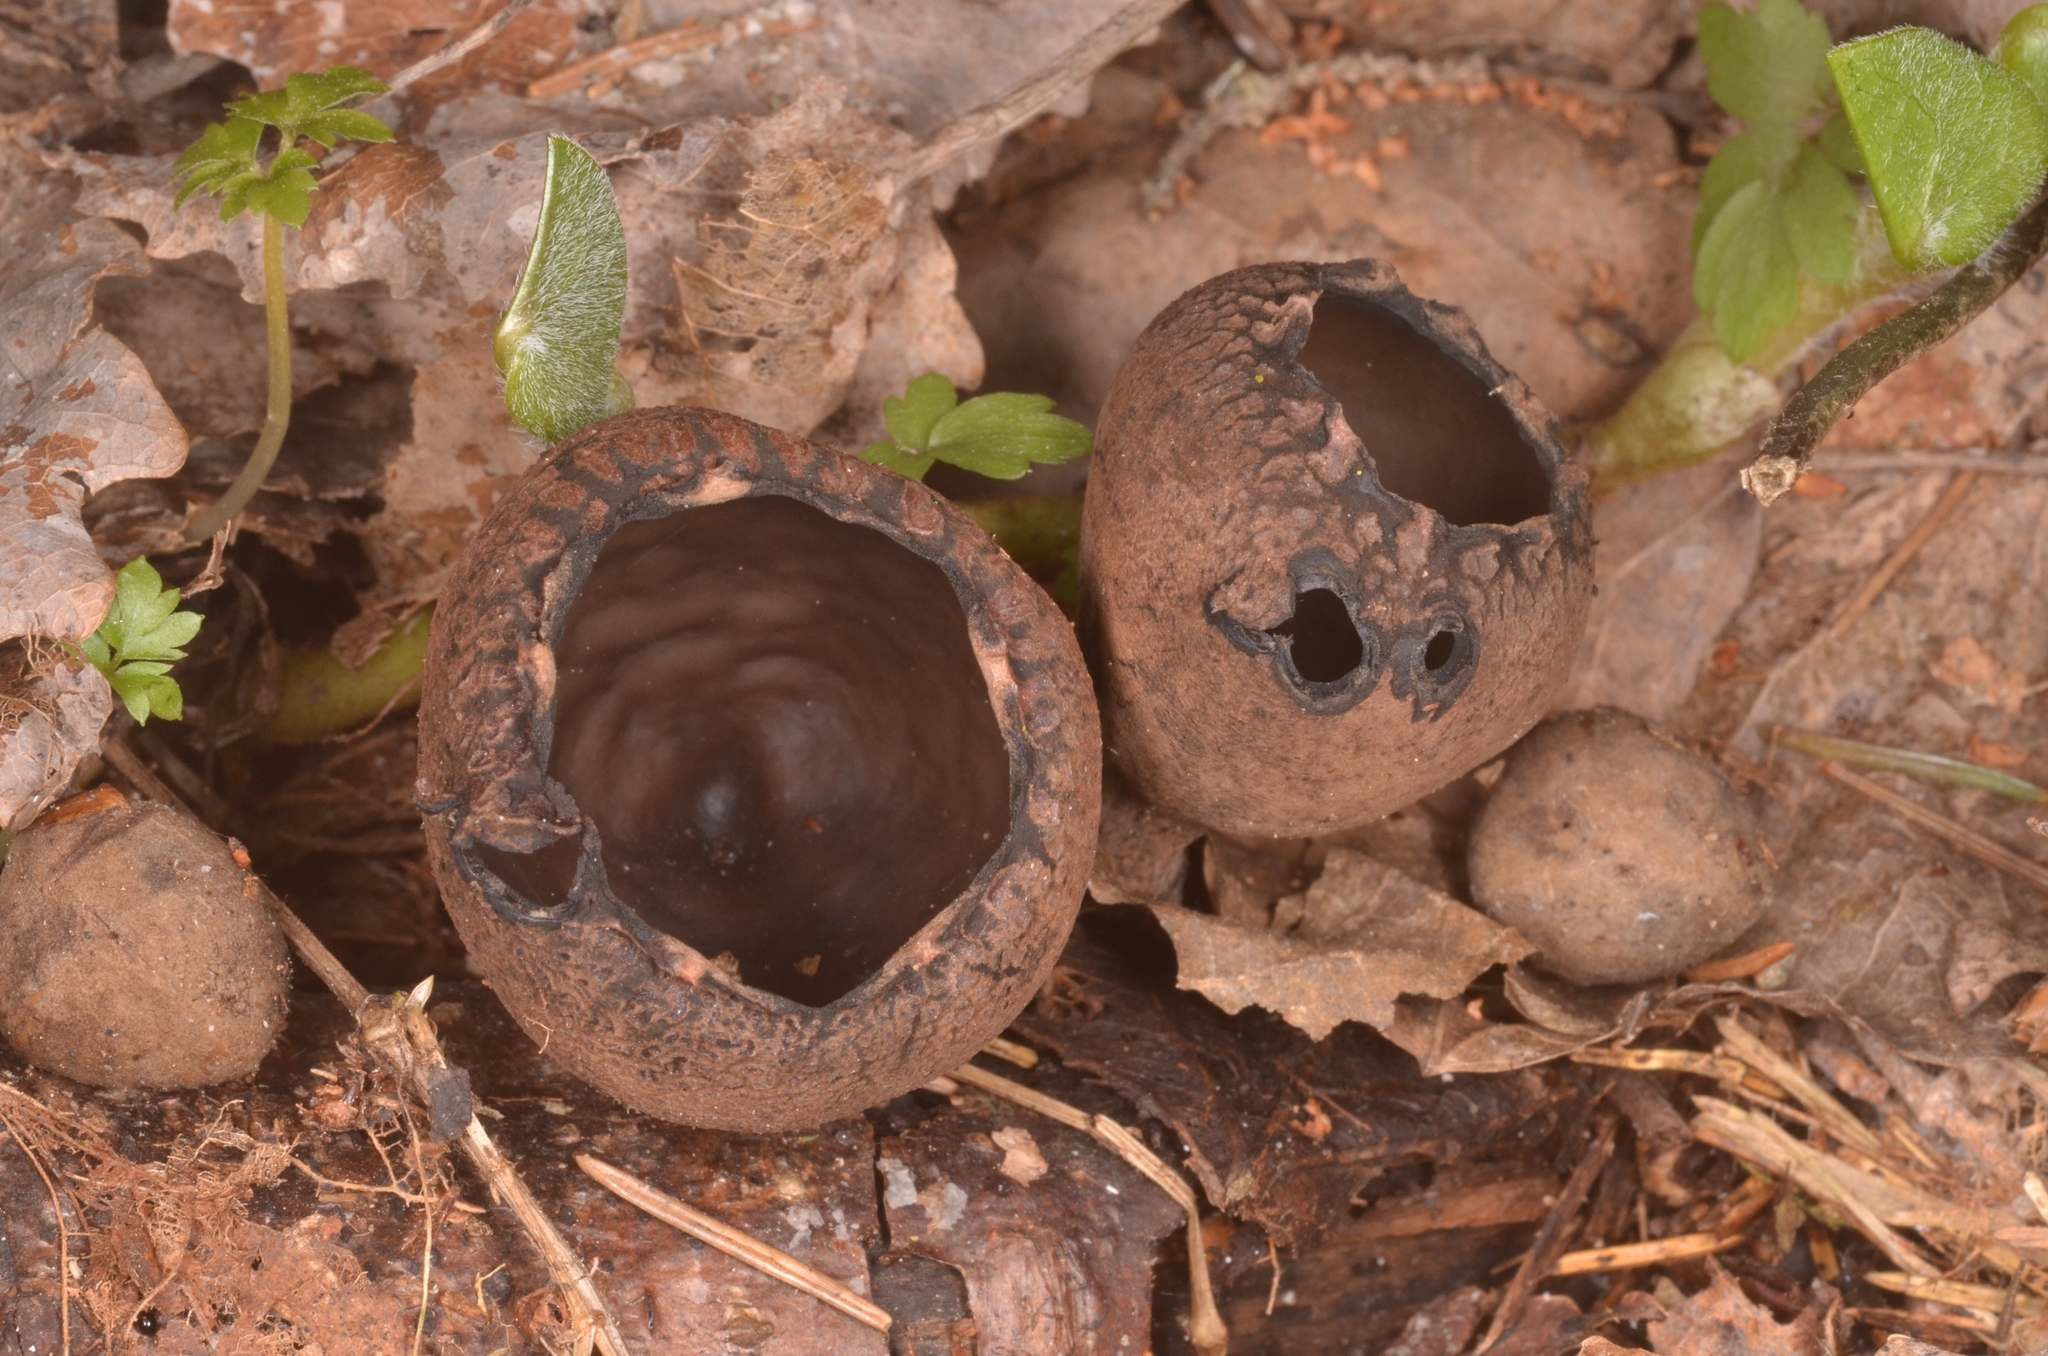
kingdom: Fungi
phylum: Ascomycota
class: Pezizomycetes
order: Pezizales
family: Sarcosomataceae
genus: Urnula
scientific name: Urnula craterium
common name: Devil's urn
